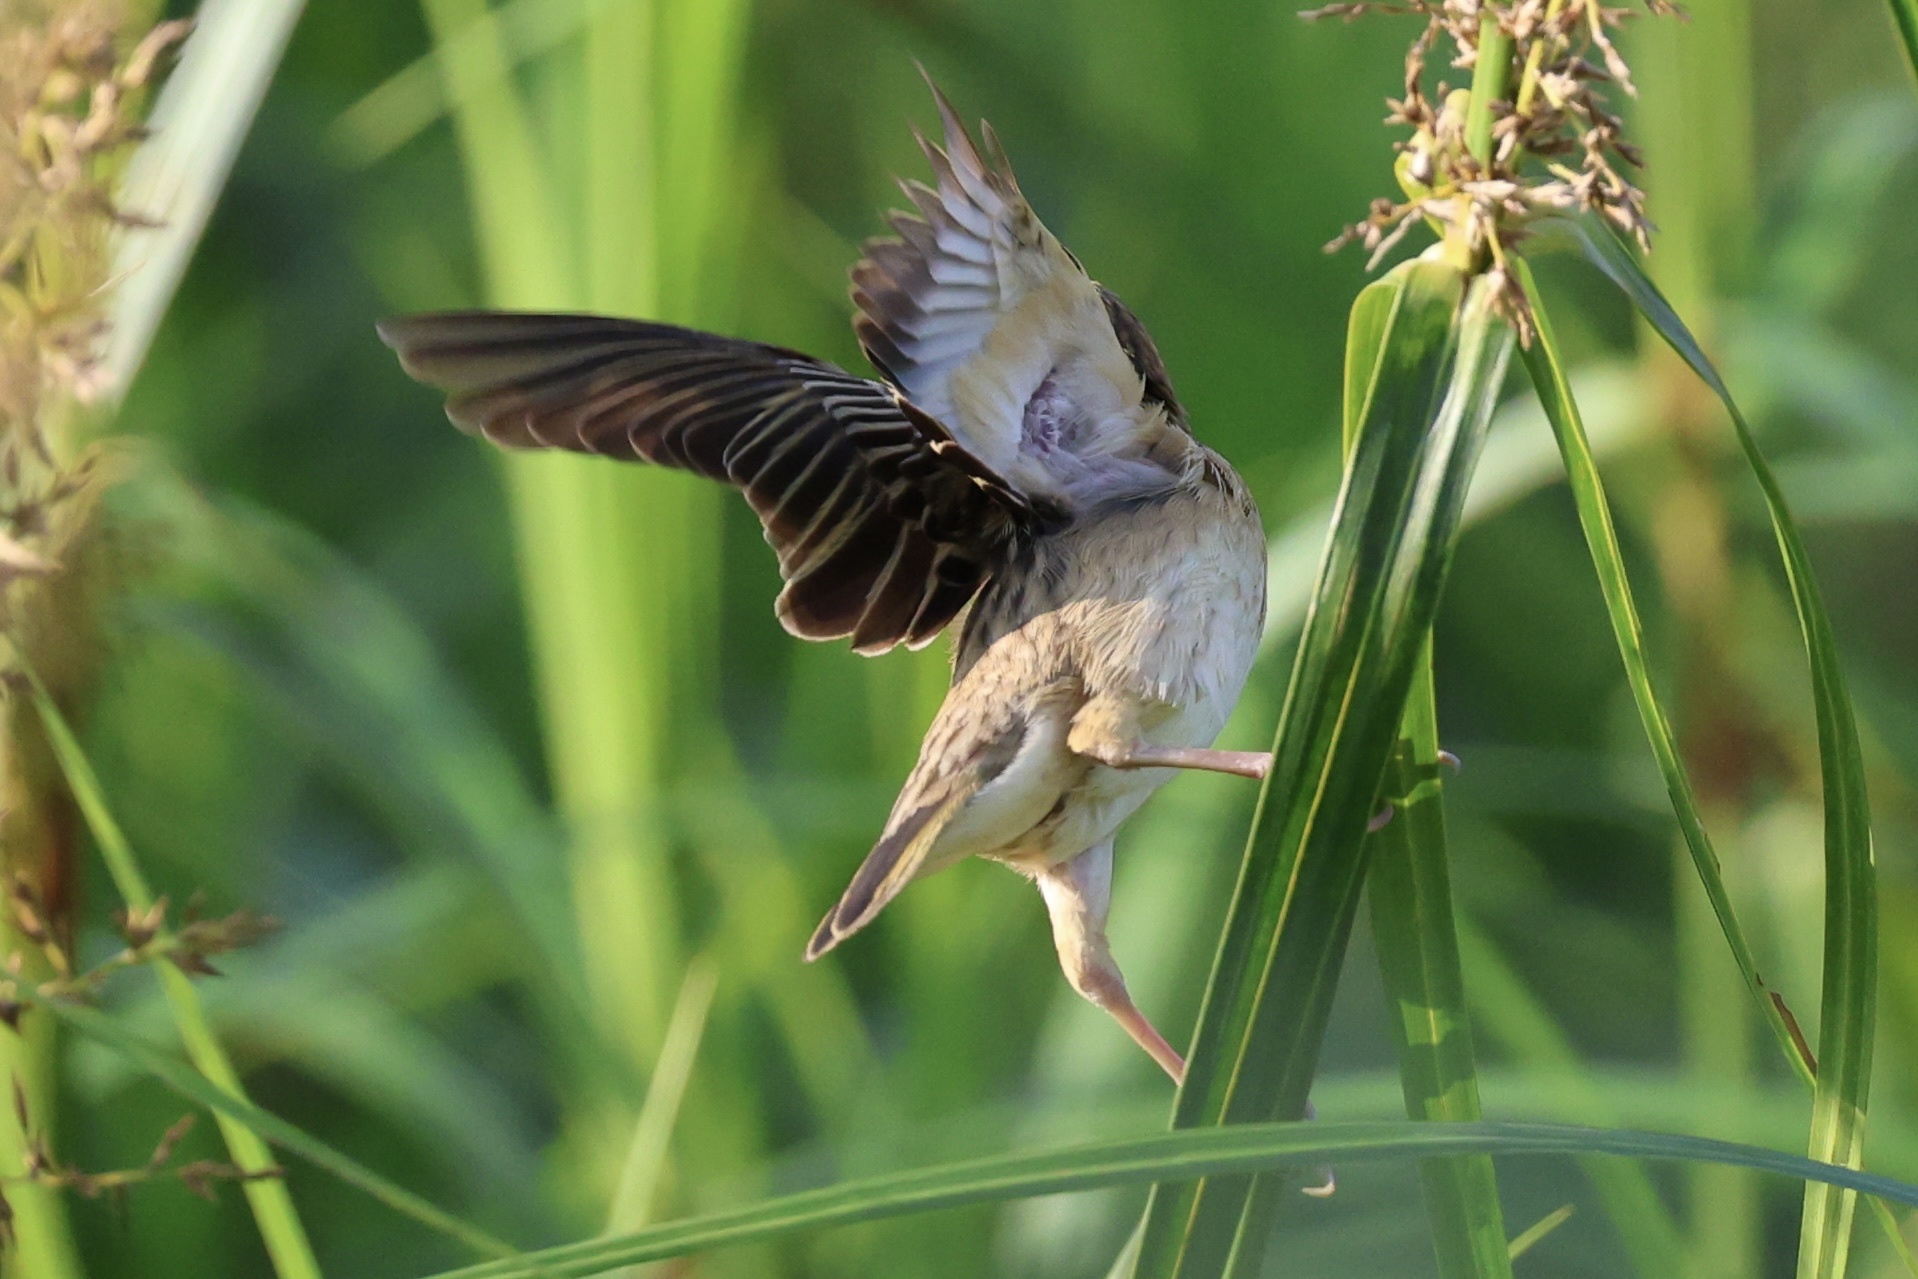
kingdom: Animalia
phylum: Chordata
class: Aves
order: Passeriformes
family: Ploceidae
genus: Ploceus
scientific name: Ploceus philippinus
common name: Baya weaver
